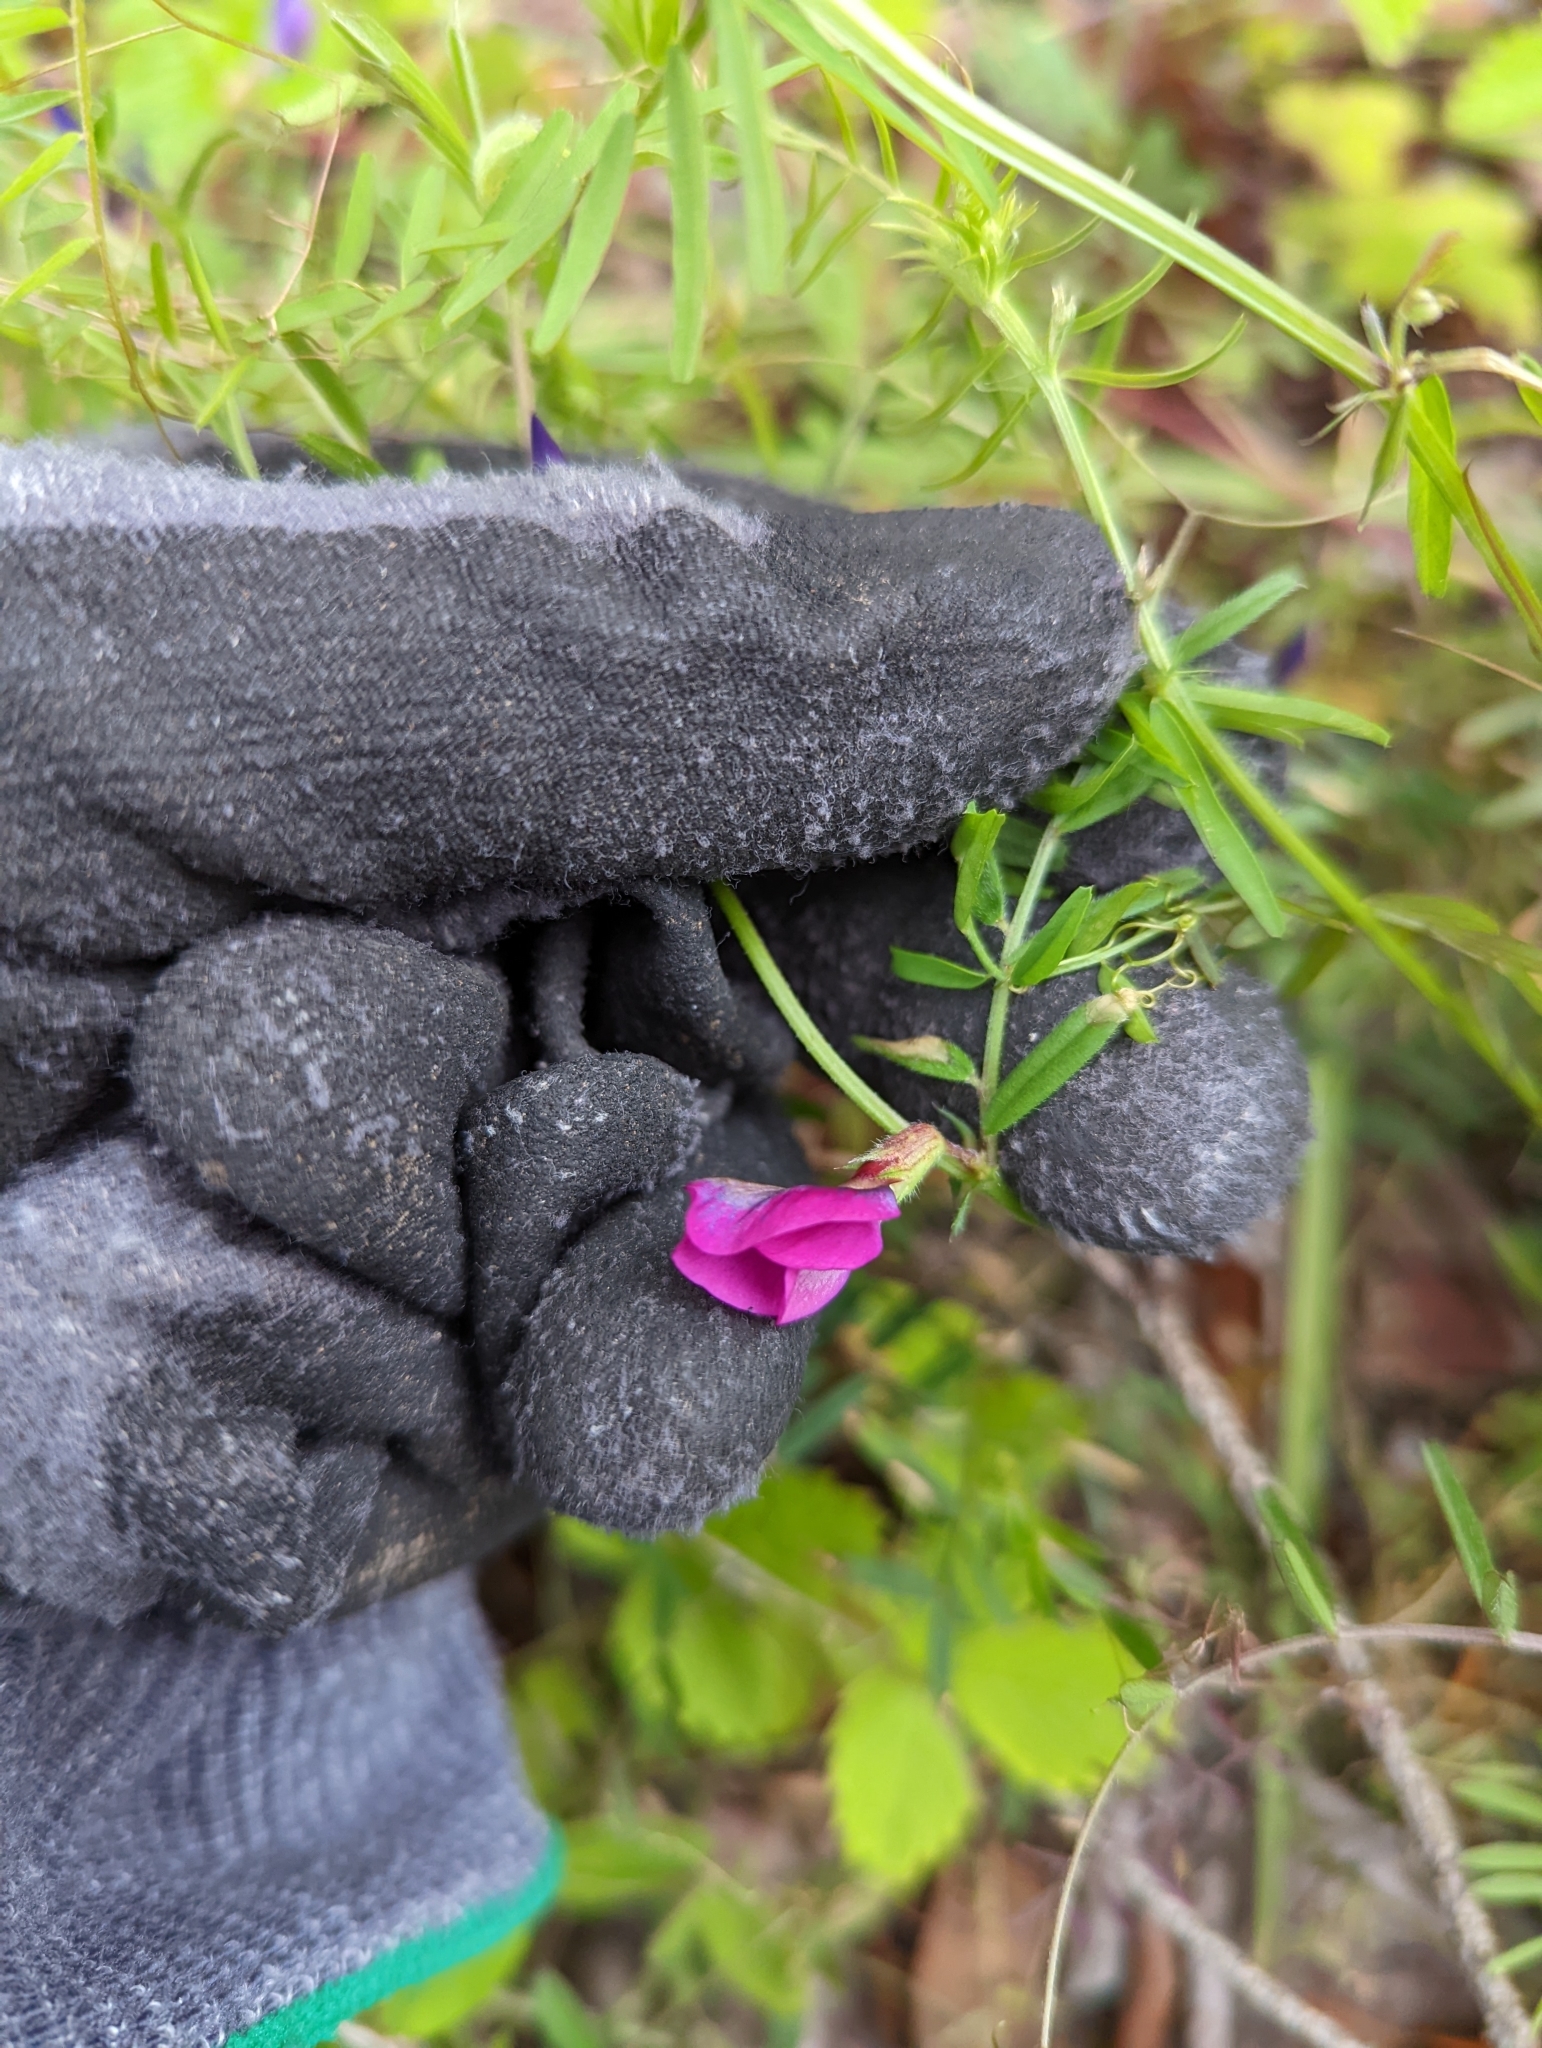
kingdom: Plantae
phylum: Tracheophyta
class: Magnoliopsida
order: Fabales
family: Fabaceae
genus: Vicia
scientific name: Vicia sativa
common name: Garden vetch
